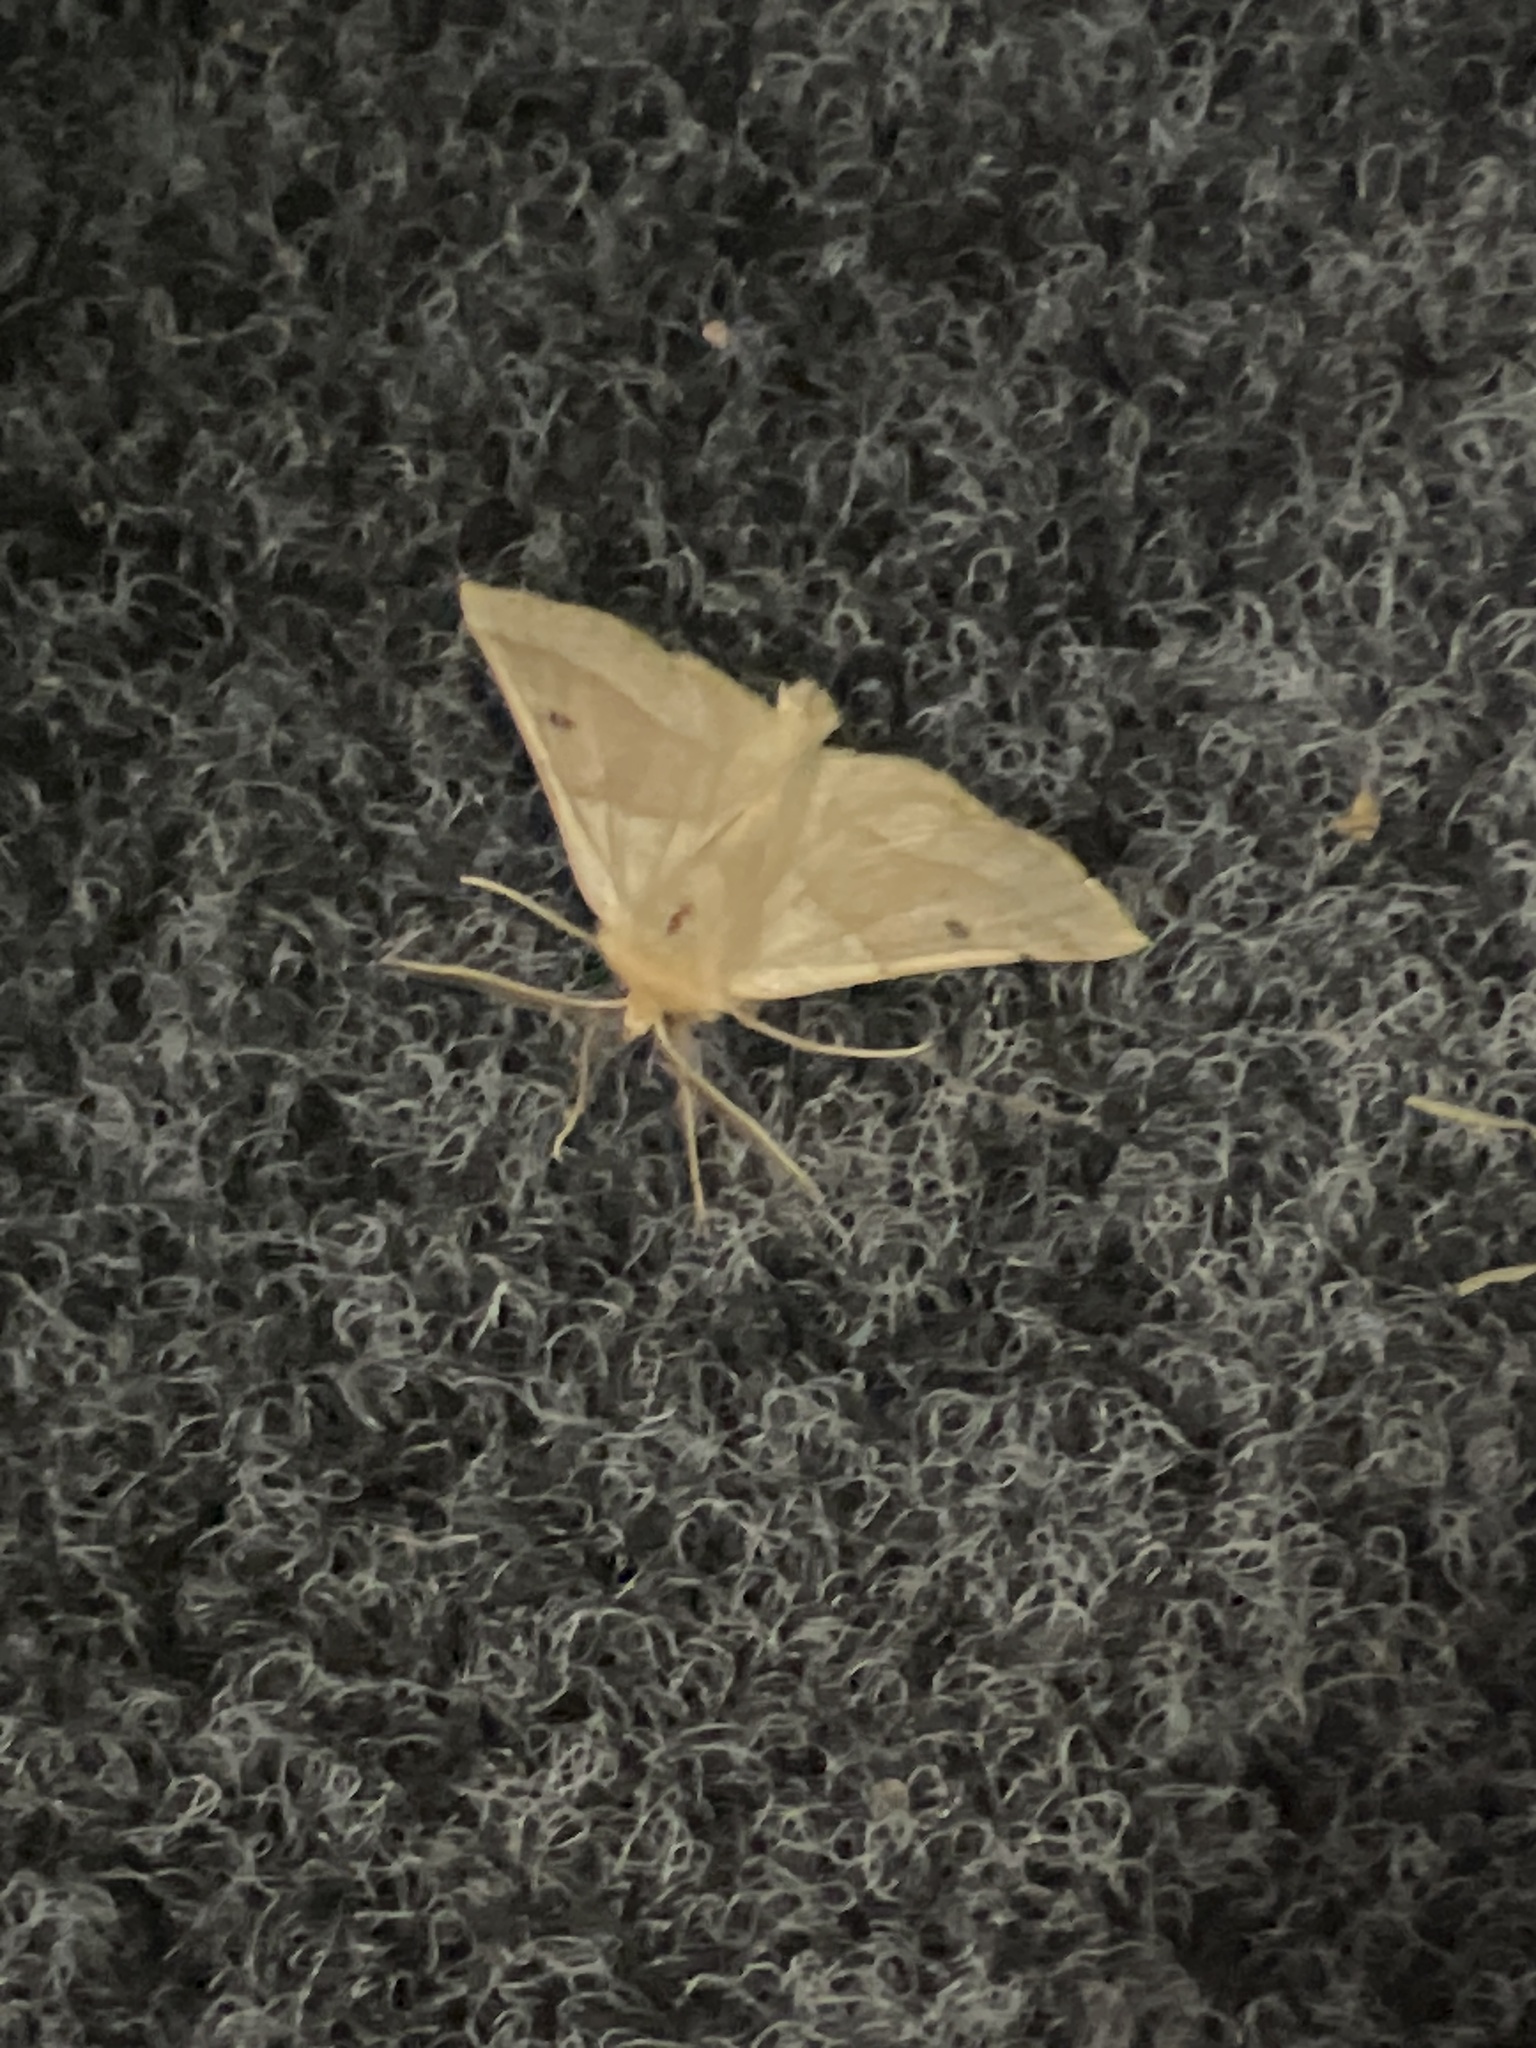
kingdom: Animalia
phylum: Arthropoda
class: Insecta
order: Lepidoptera
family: Geometridae
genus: Crocallis
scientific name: Crocallis elinguaria
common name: Scalloped oak
